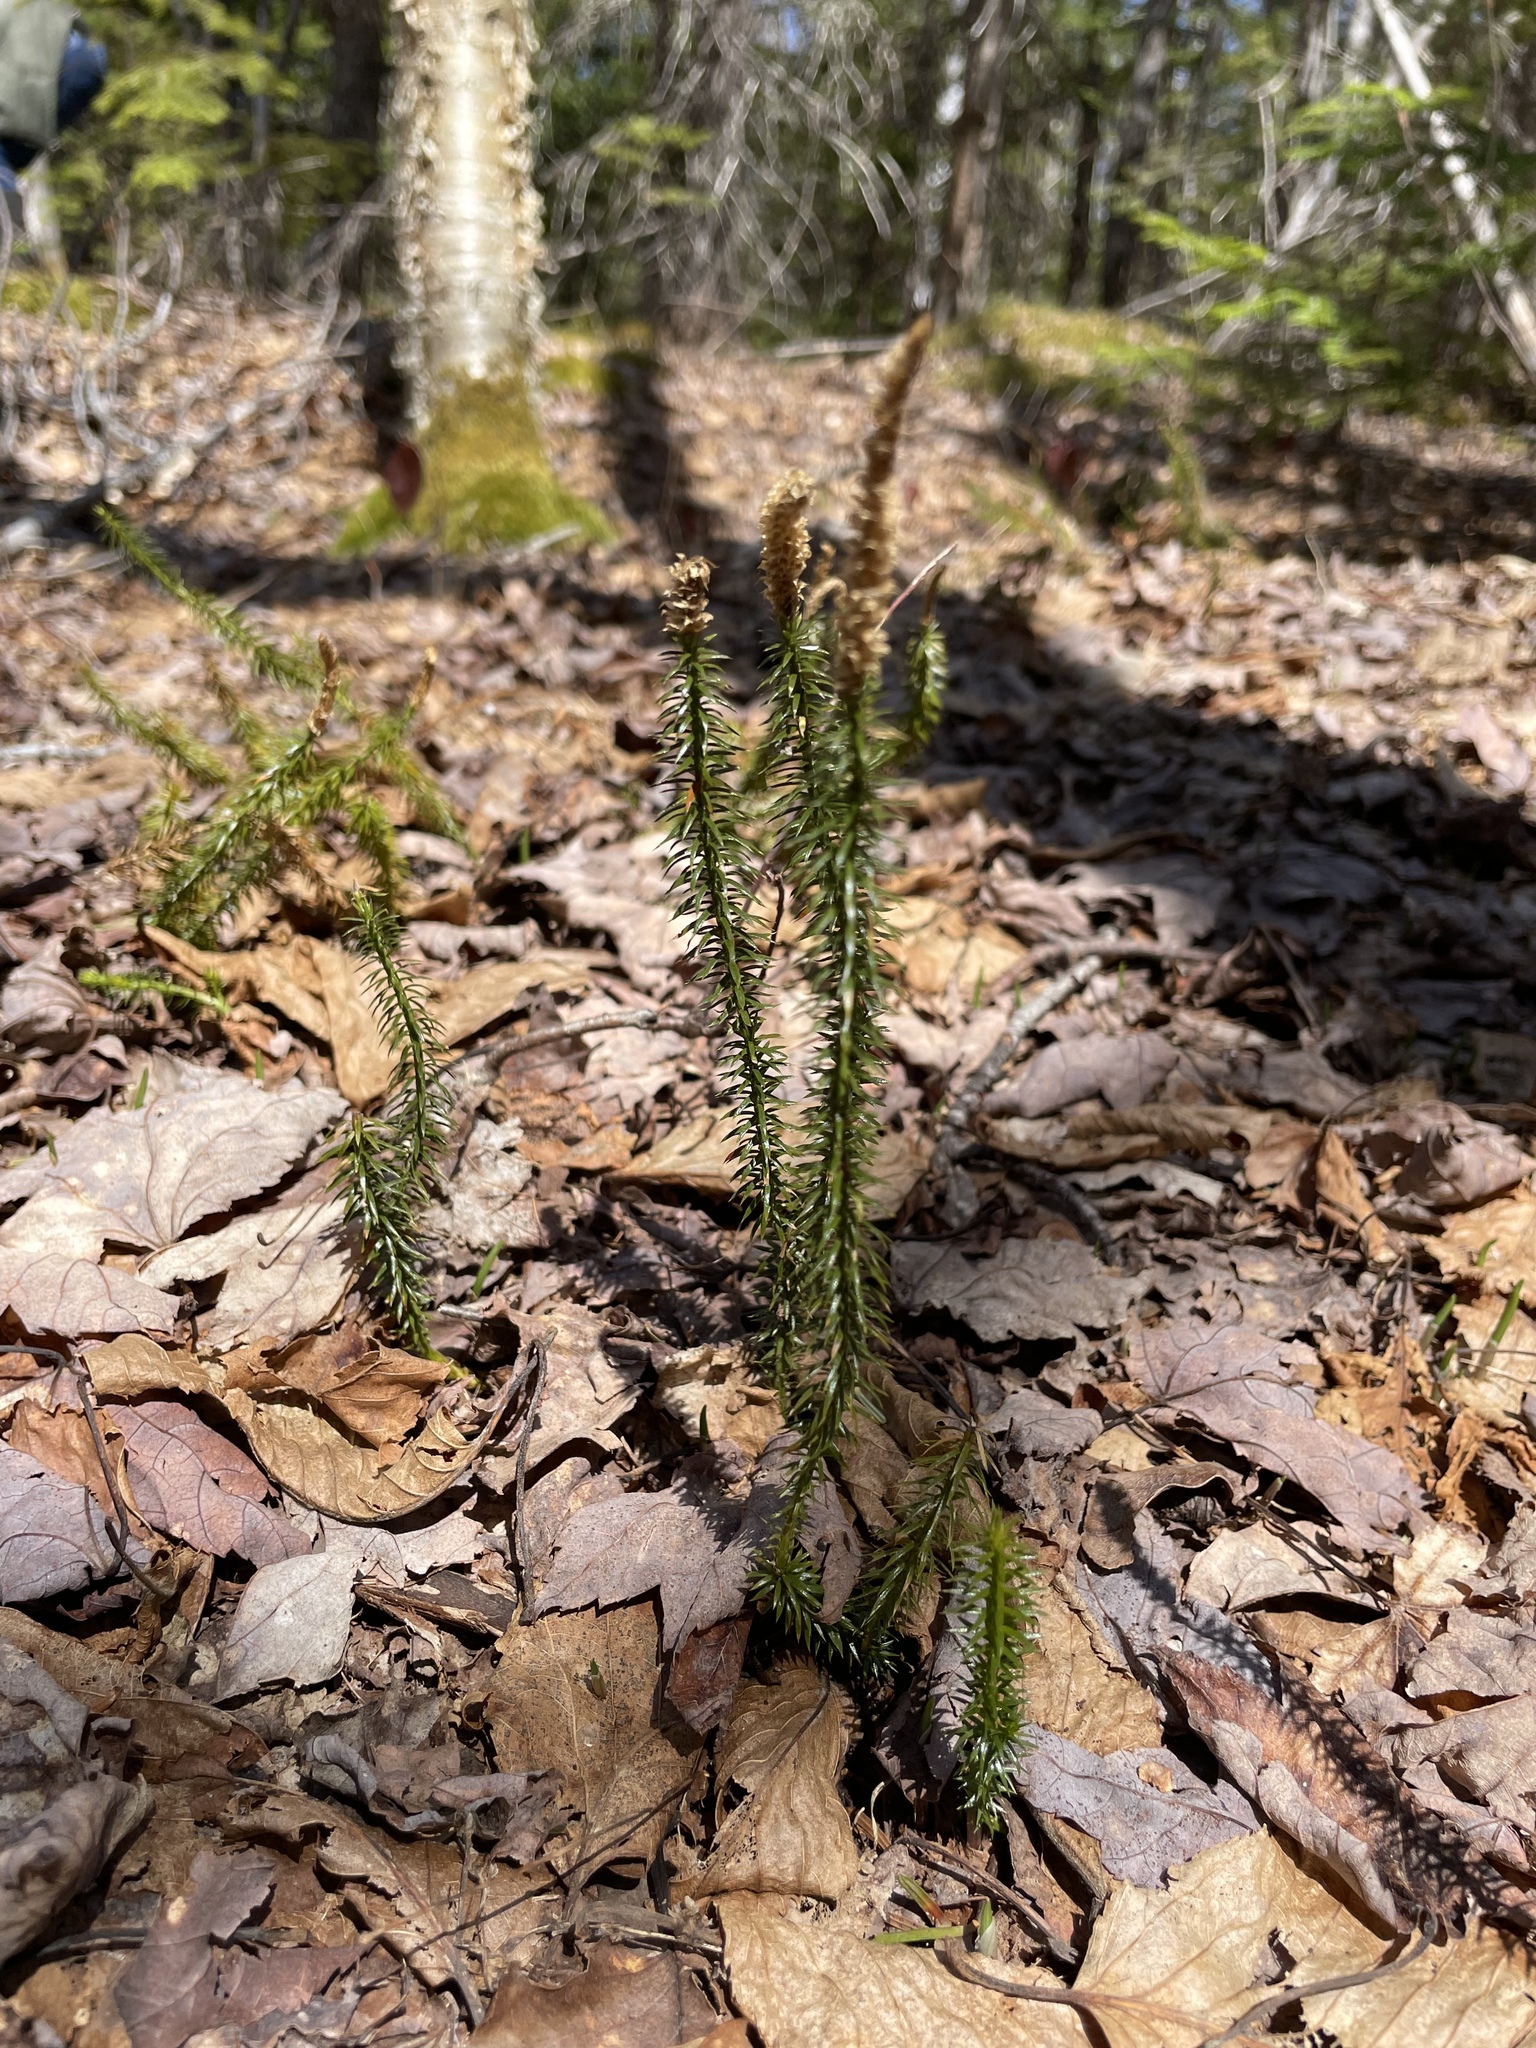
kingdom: Plantae
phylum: Tracheophyta
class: Lycopodiopsida
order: Lycopodiales
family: Lycopodiaceae
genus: Spinulum
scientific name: Spinulum annotinum
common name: Interrupted club-moss
